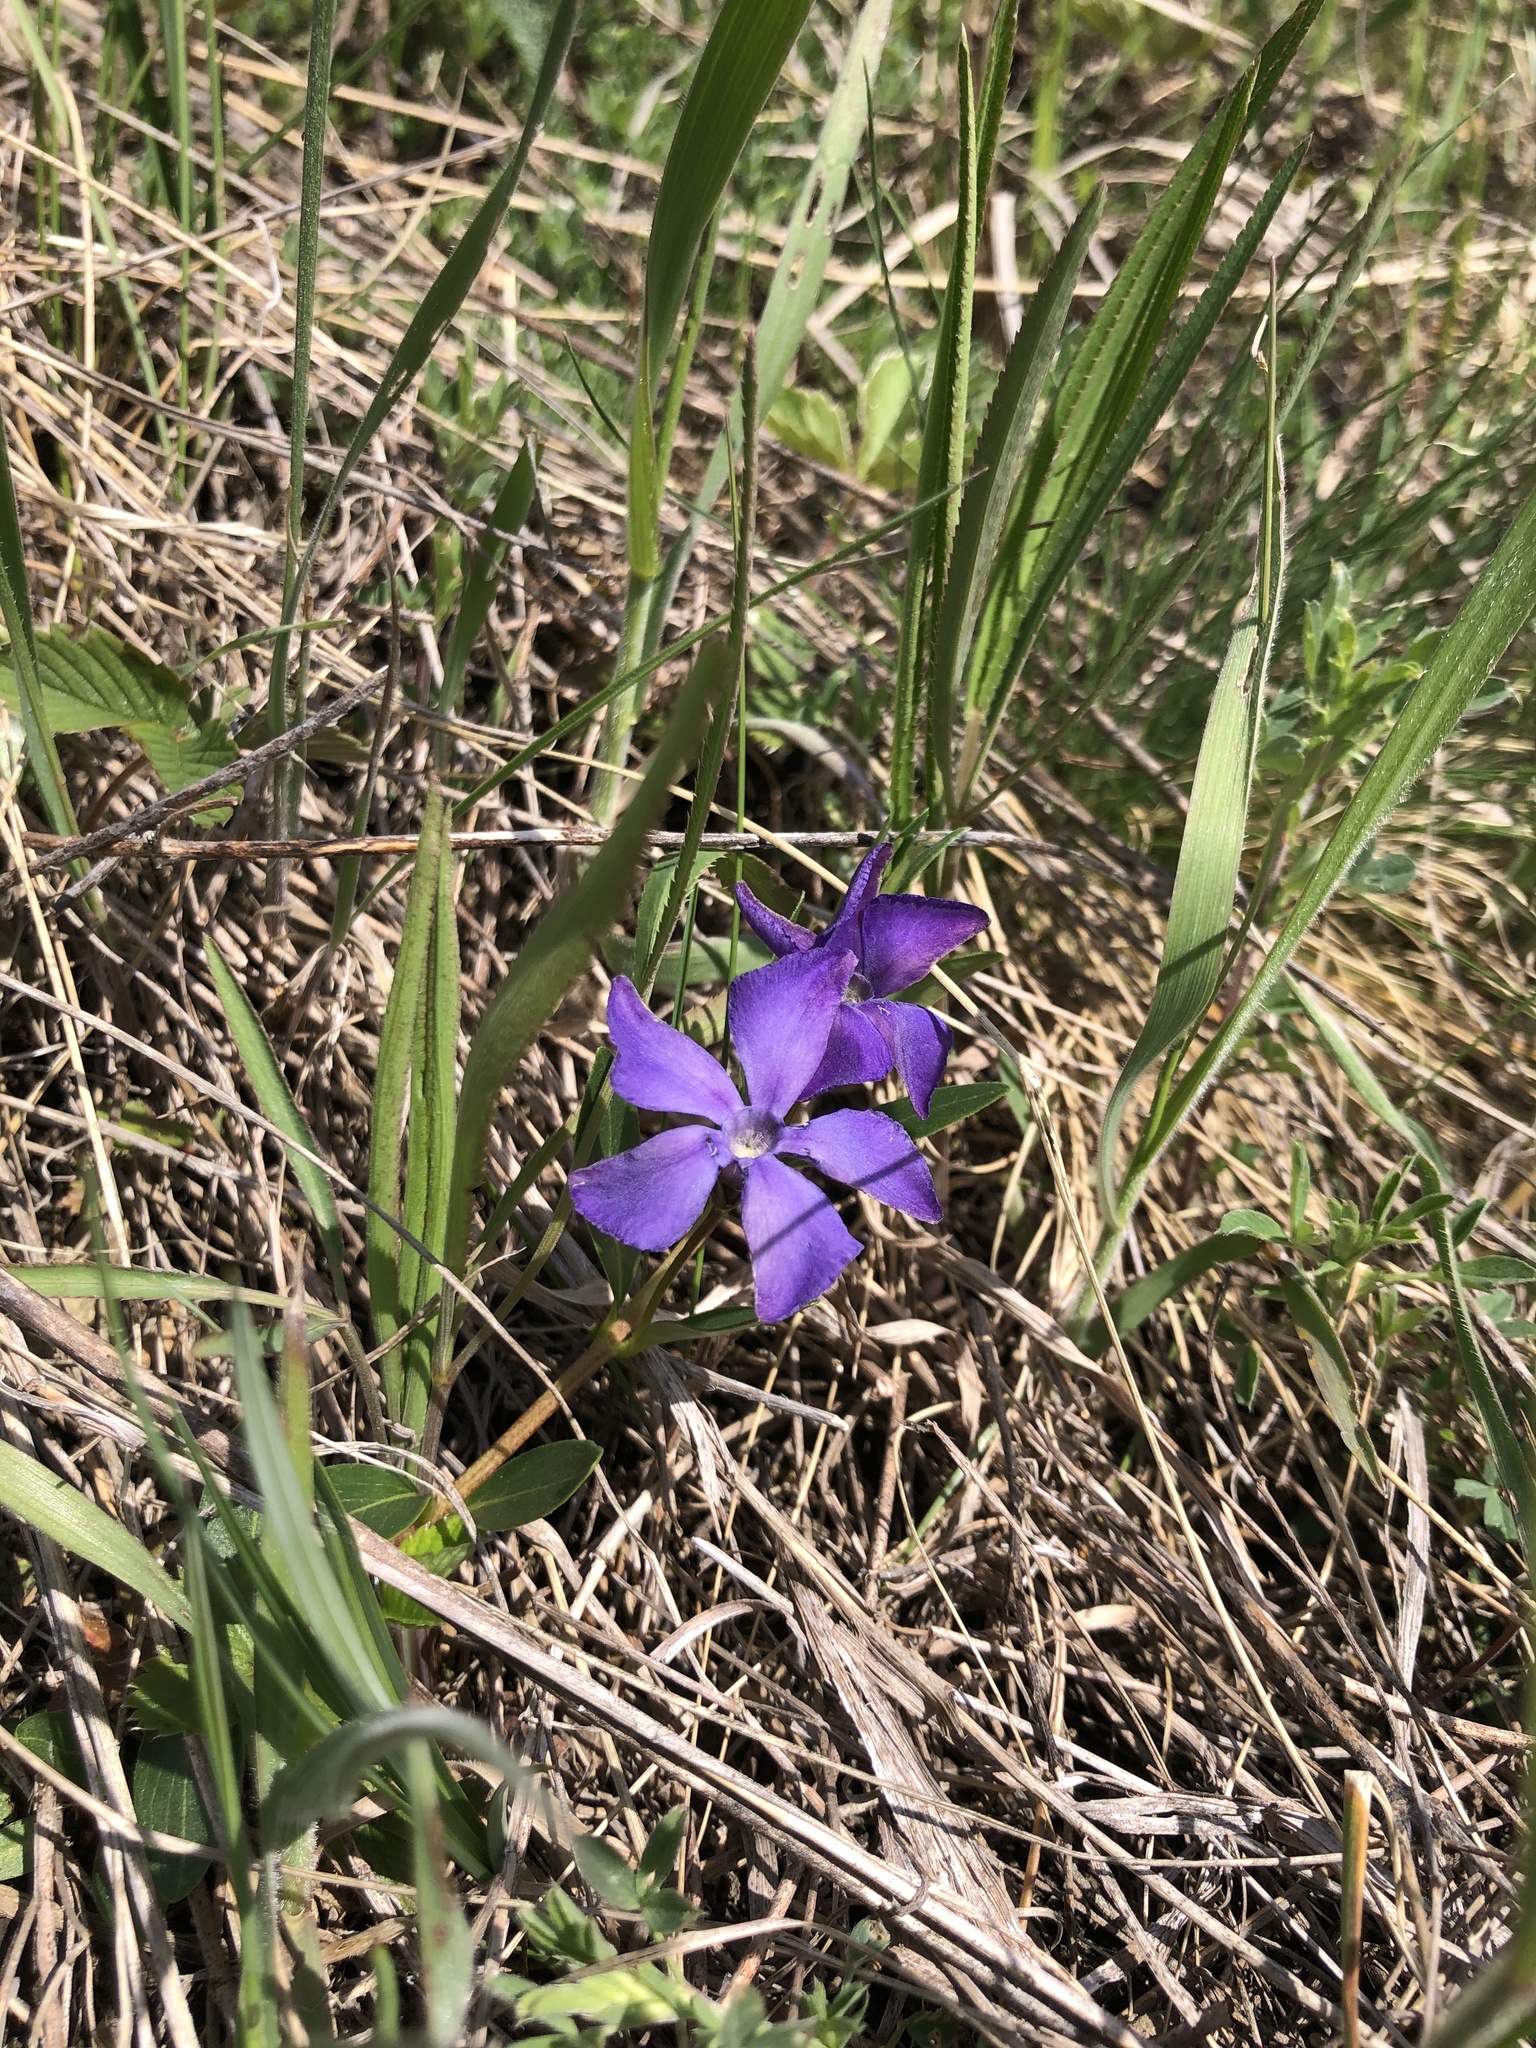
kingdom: Plantae
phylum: Tracheophyta
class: Magnoliopsida
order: Gentianales
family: Apocynaceae
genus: Vinca
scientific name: Vinca herbacea
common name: Herbaceous periwinkle
